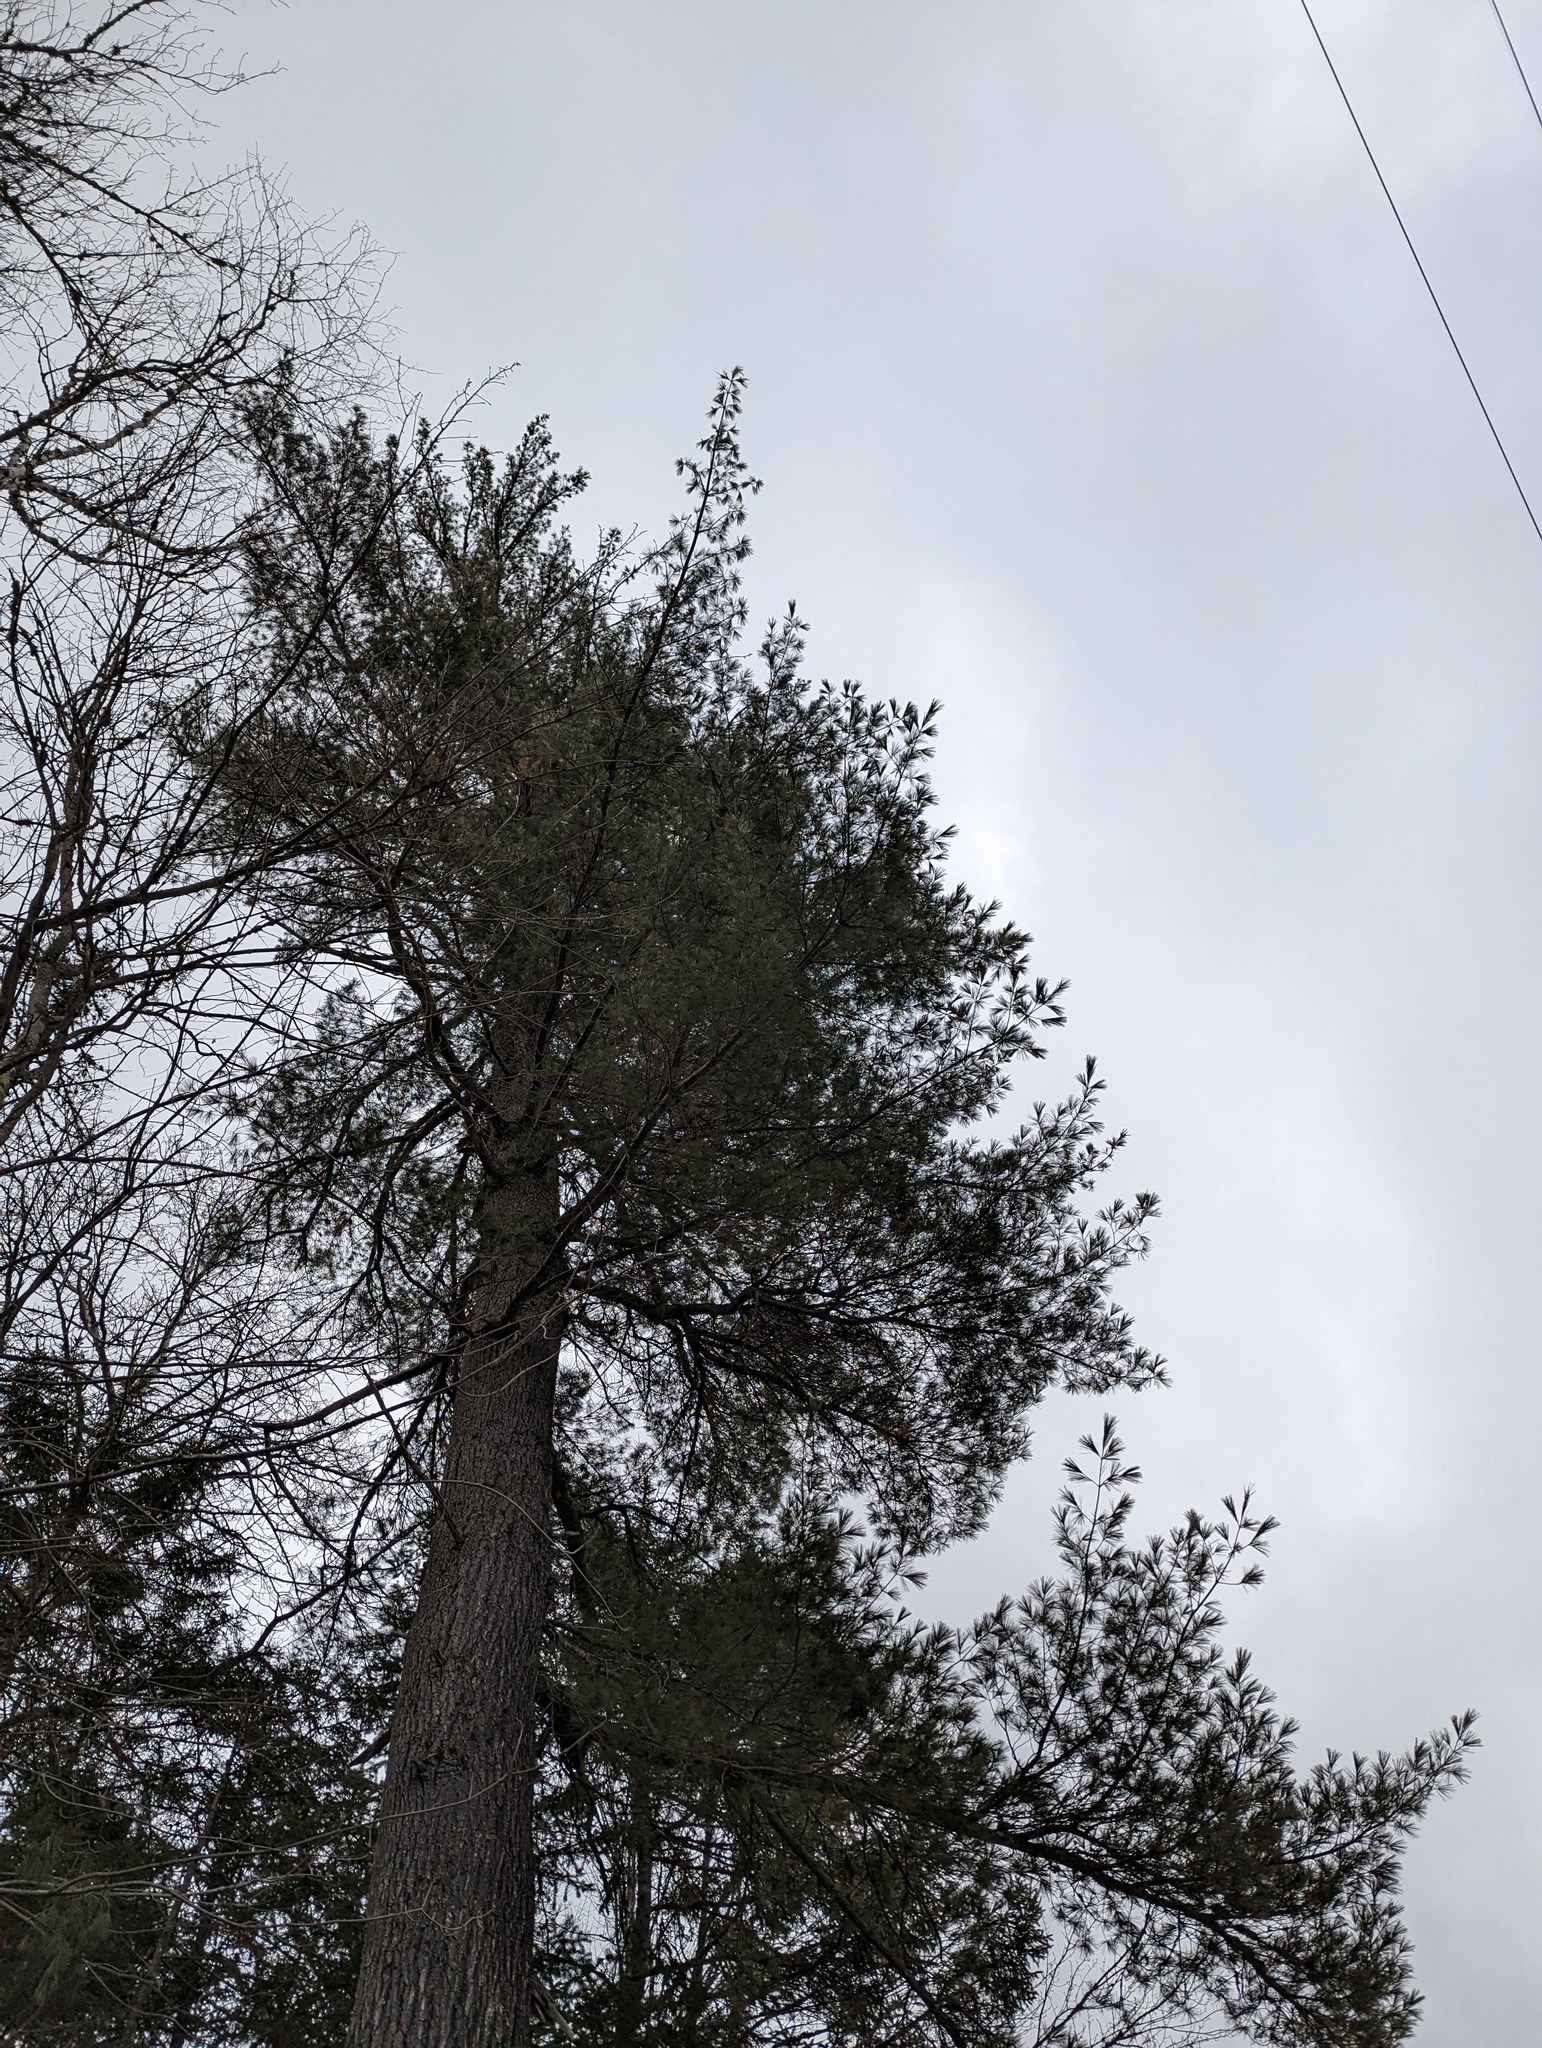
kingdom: Plantae
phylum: Tracheophyta
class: Pinopsida
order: Pinales
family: Pinaceae
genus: Pinus
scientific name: Pinus strobus
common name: Weymouth pine
